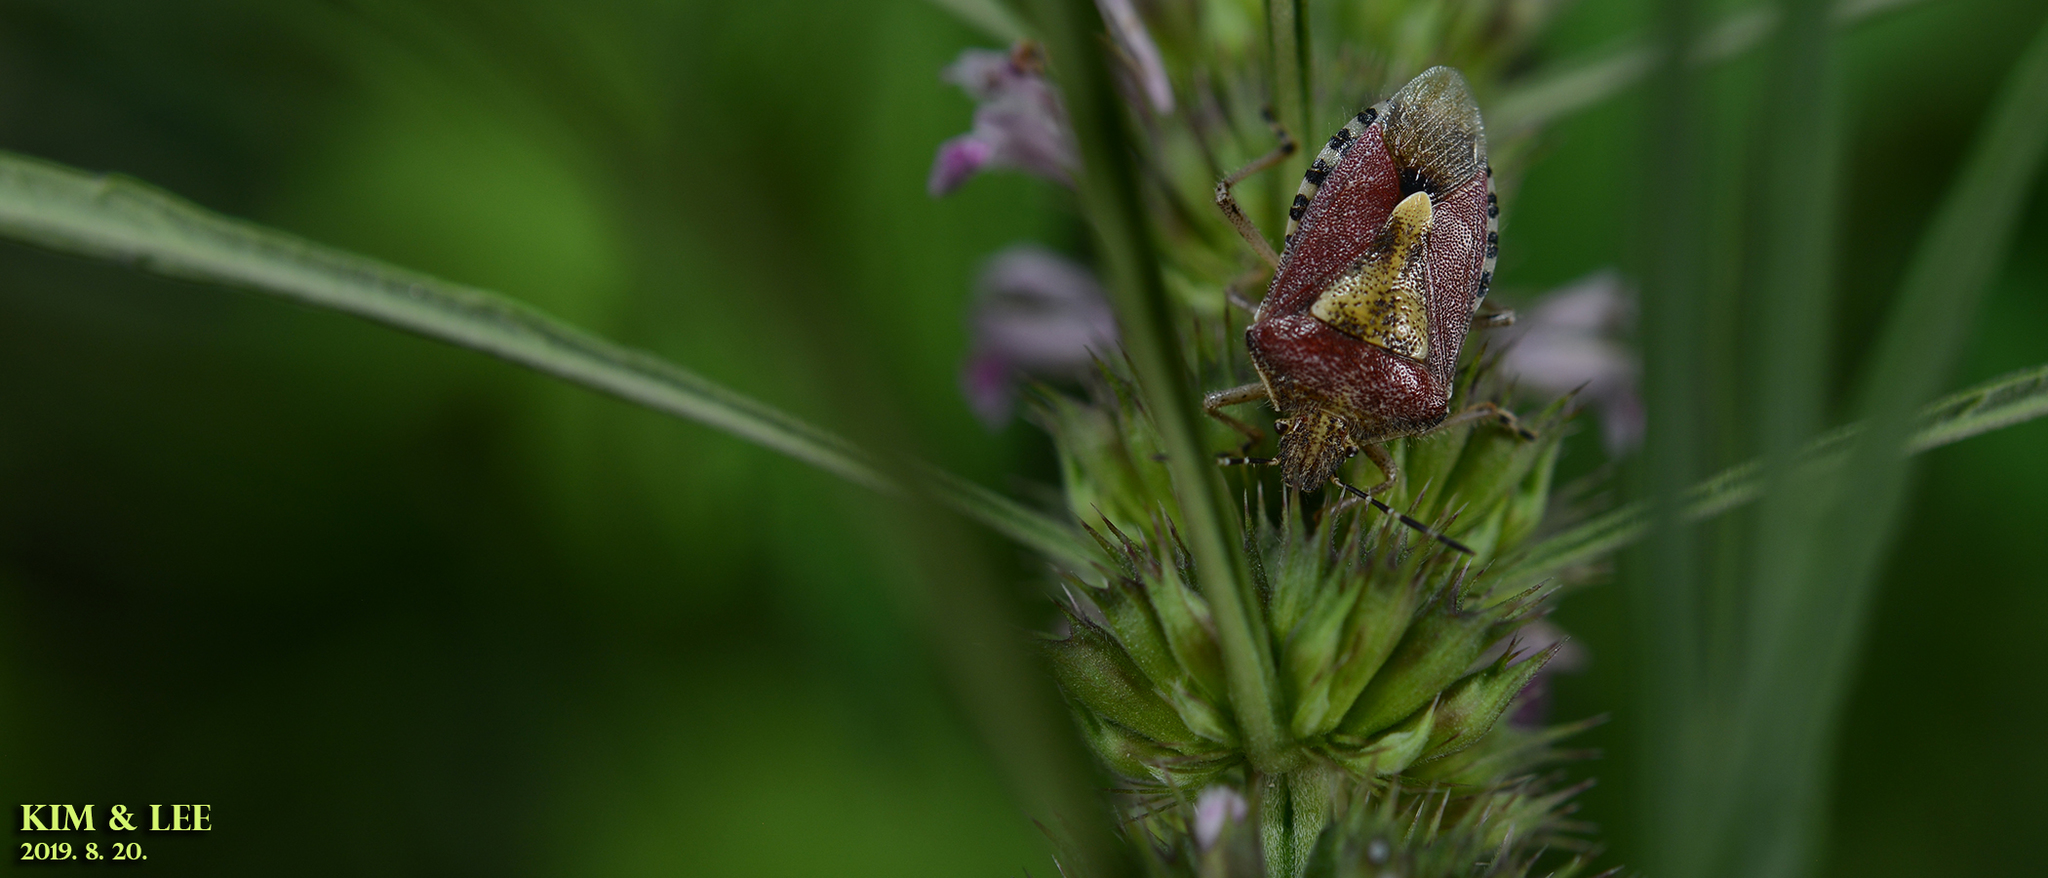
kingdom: Animalia
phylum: Arthropoda
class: Insecta
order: Hemiptera
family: Pentatomidae
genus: Dolycoris
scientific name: Dolycoris baccarum
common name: Sloe bug
